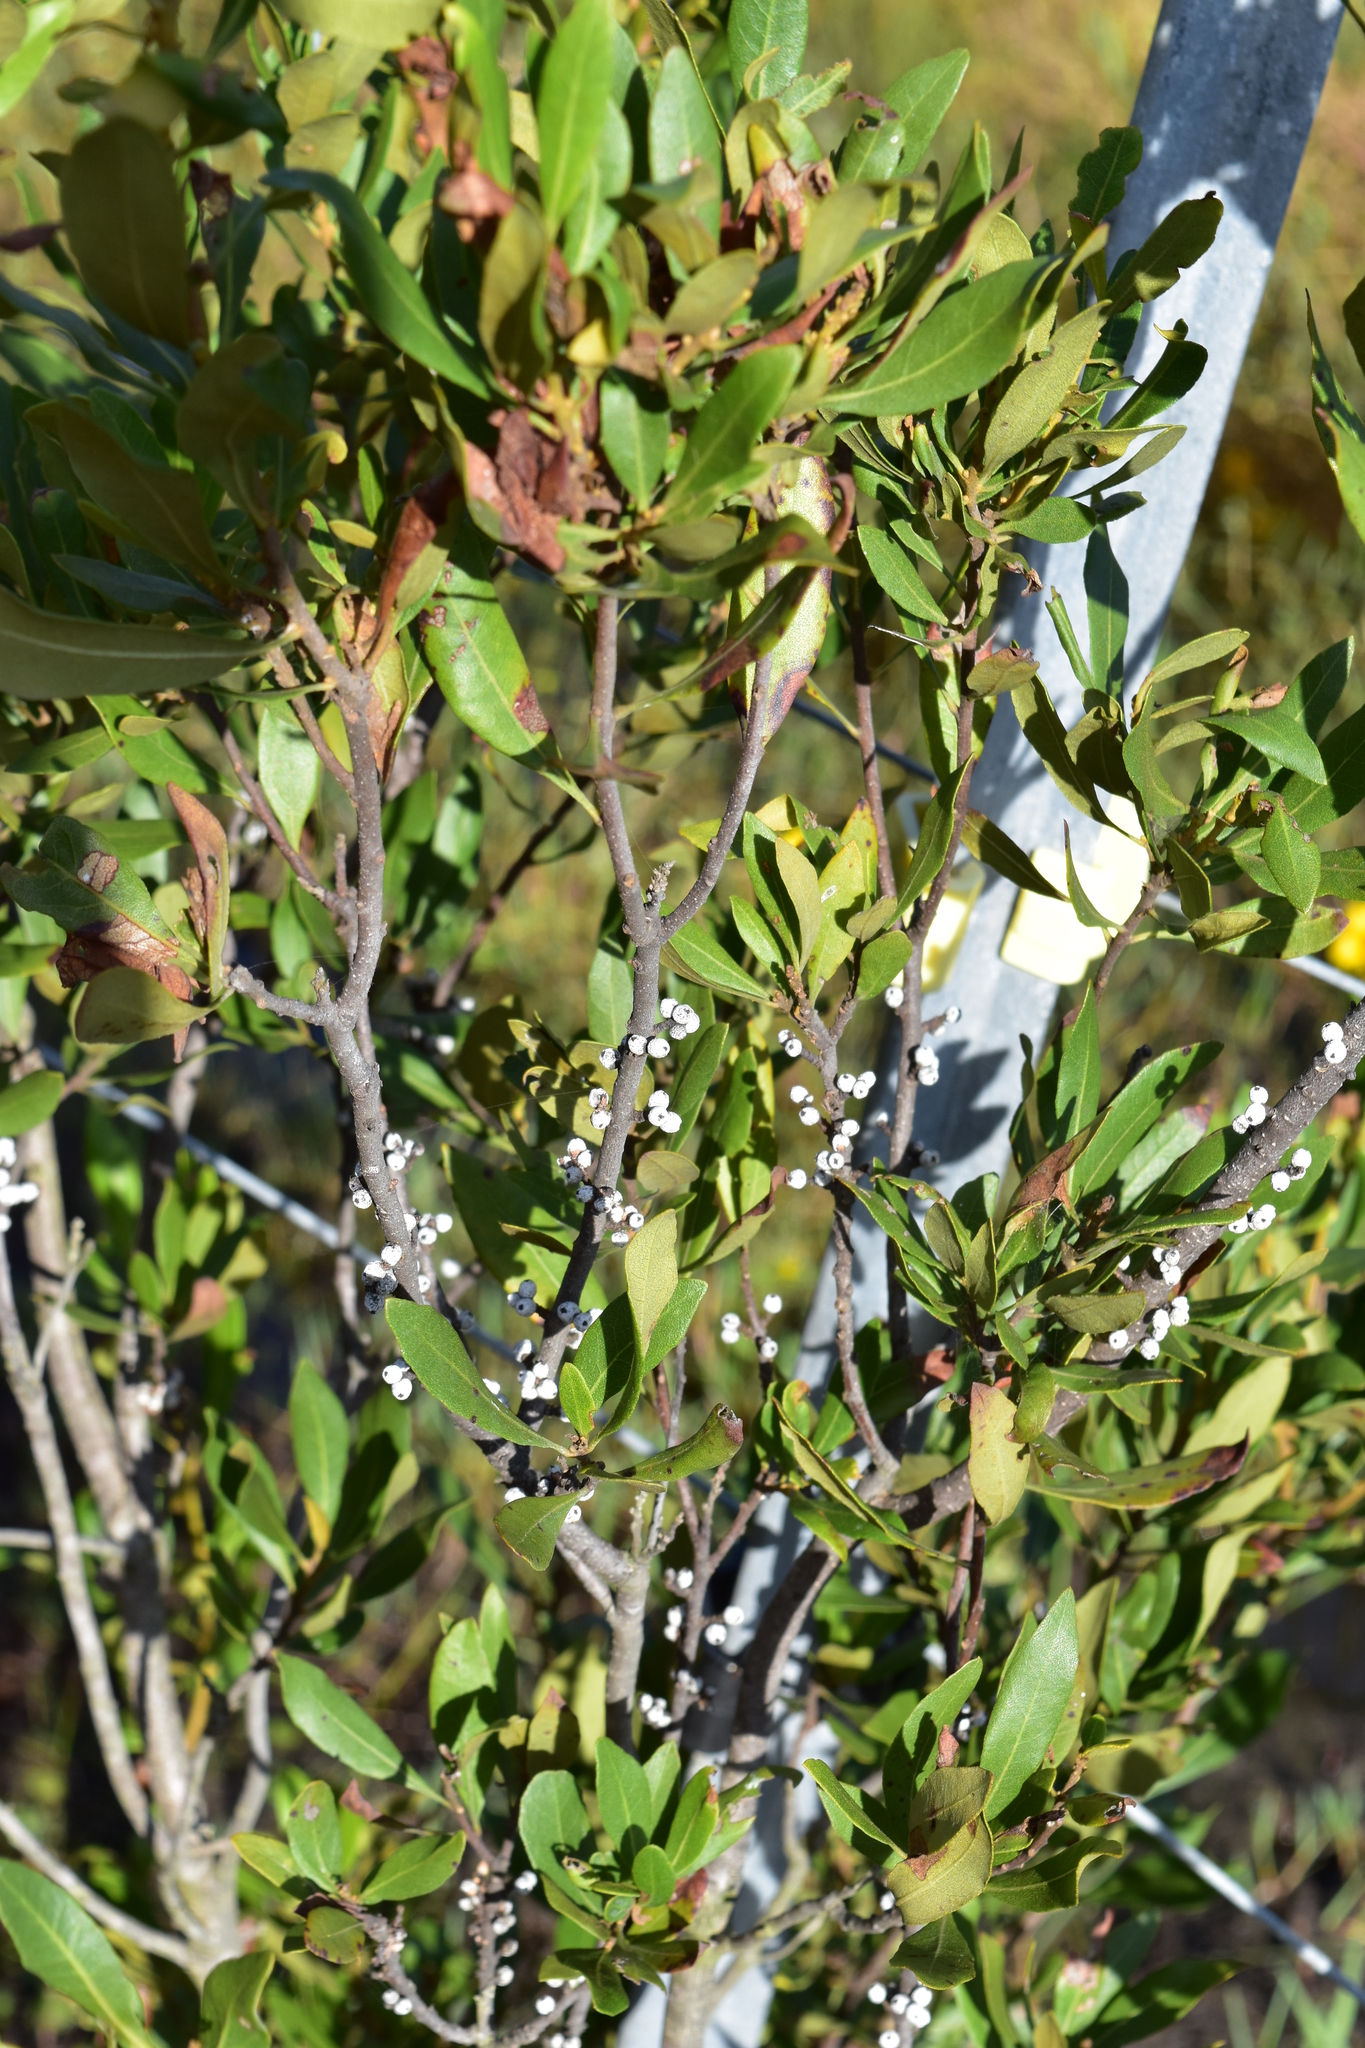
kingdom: Plantae
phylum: Tracheophyta
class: Magnoliopsida
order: Fagales
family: Myricaceae
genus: Morella
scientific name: Morella cerifera
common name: Wax myrtle
